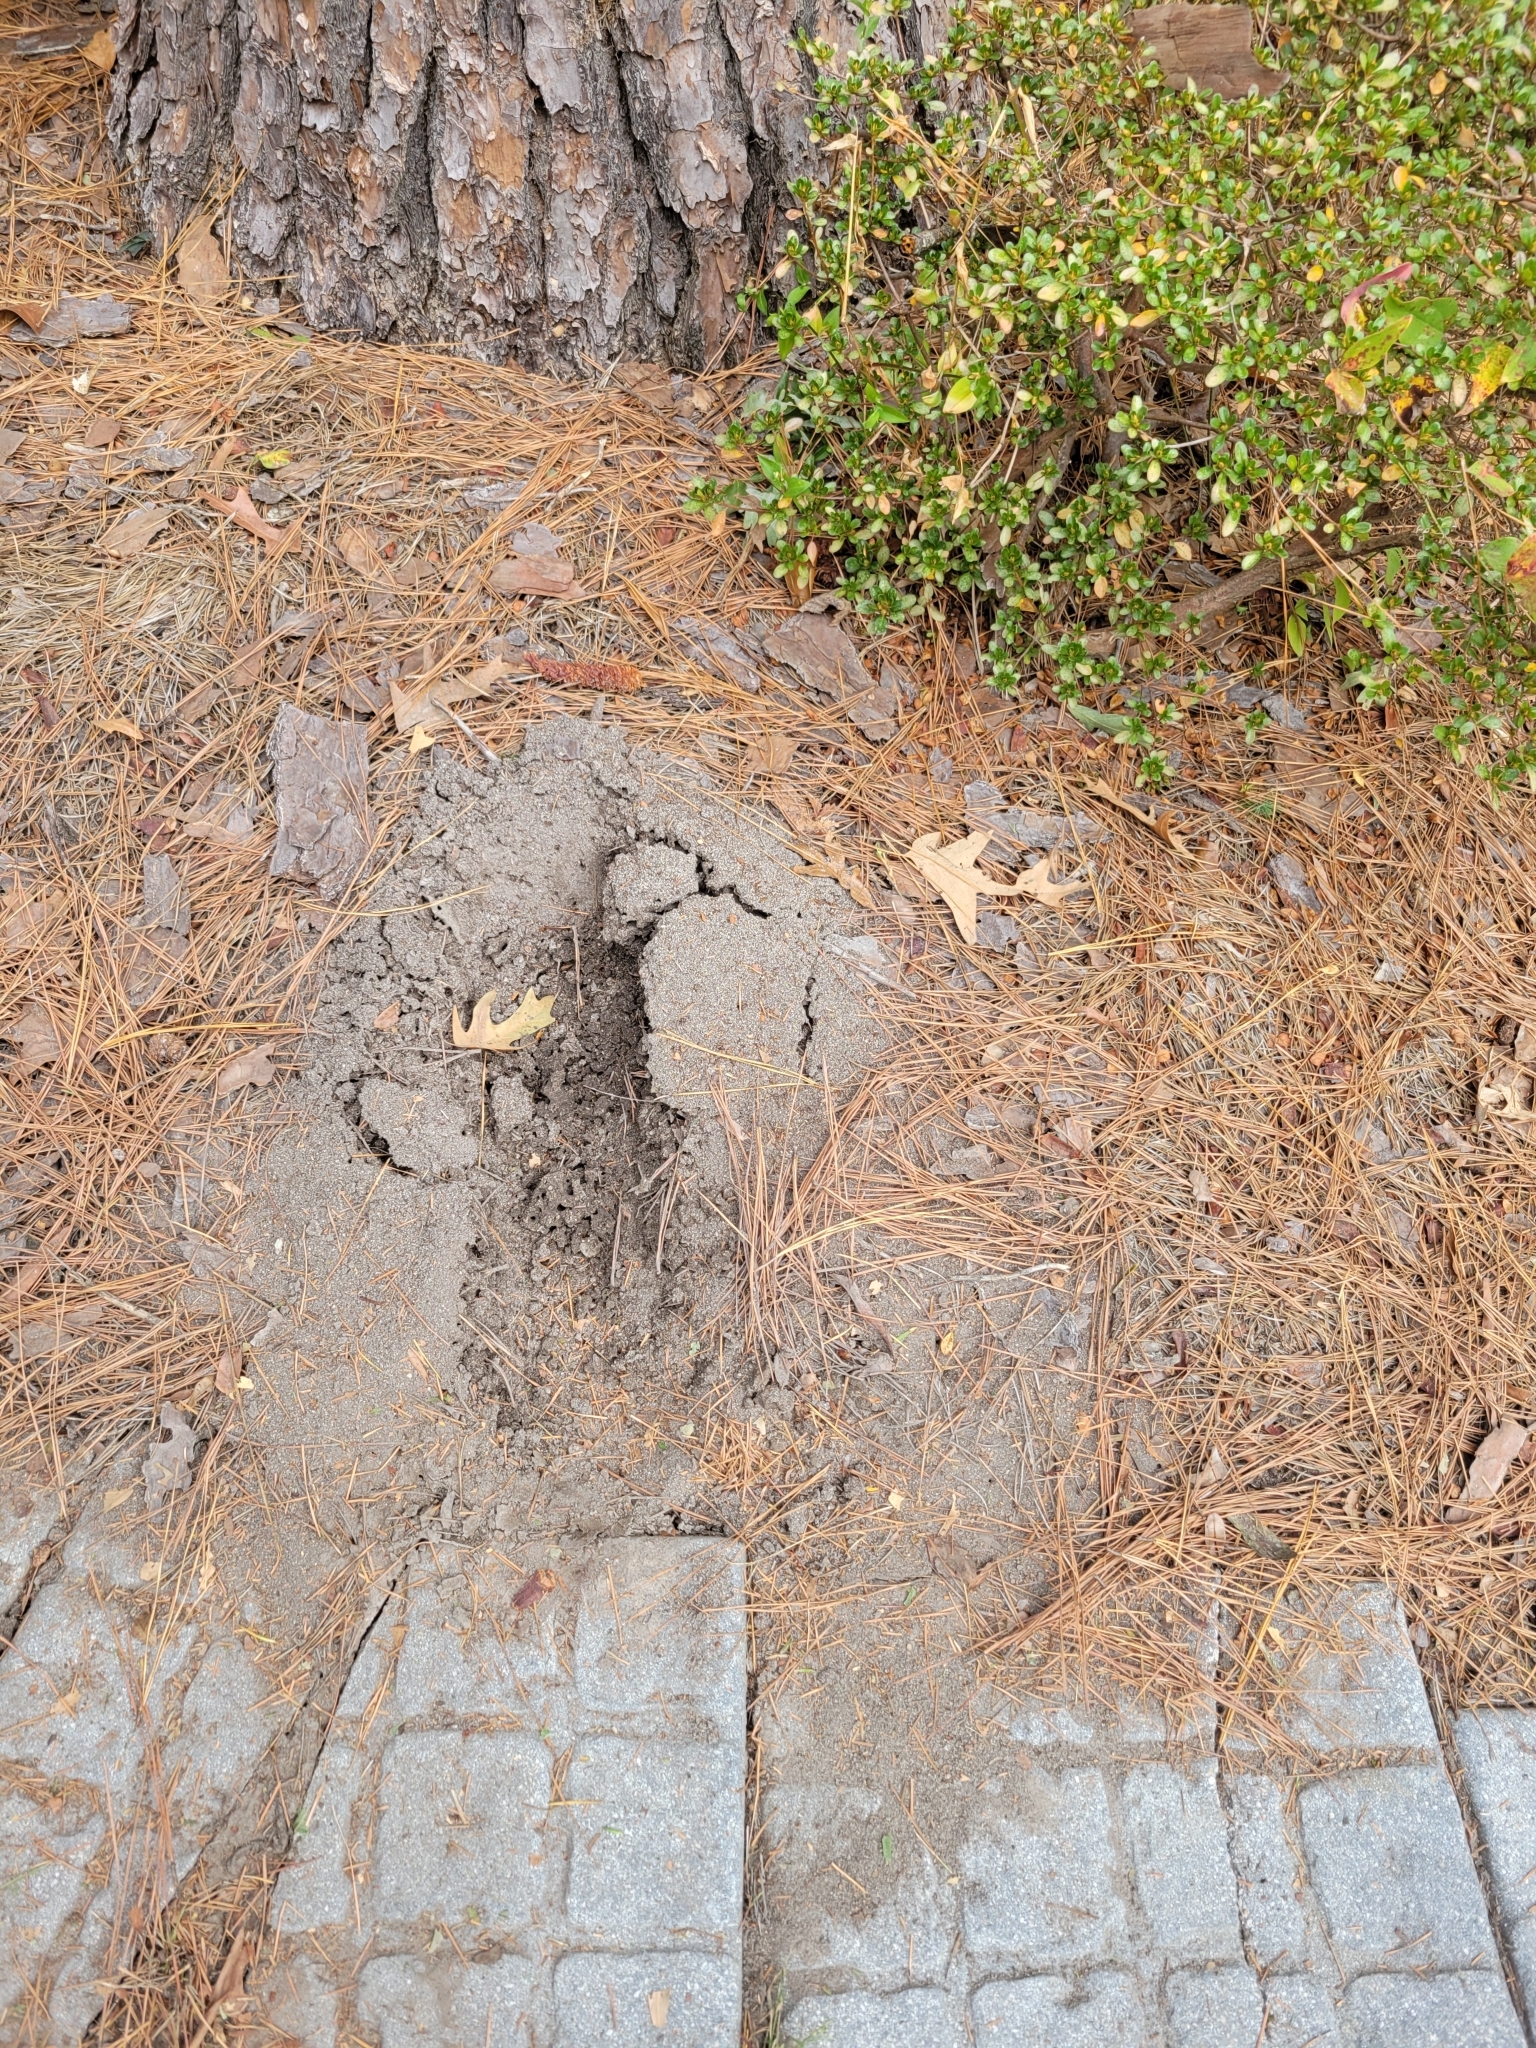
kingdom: Animalia
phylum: Arthropoda
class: Insecta
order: Hymenoptera
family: Formicidae
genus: Solenopsis
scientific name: Solenopsis invicta
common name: Red imported fire ant
